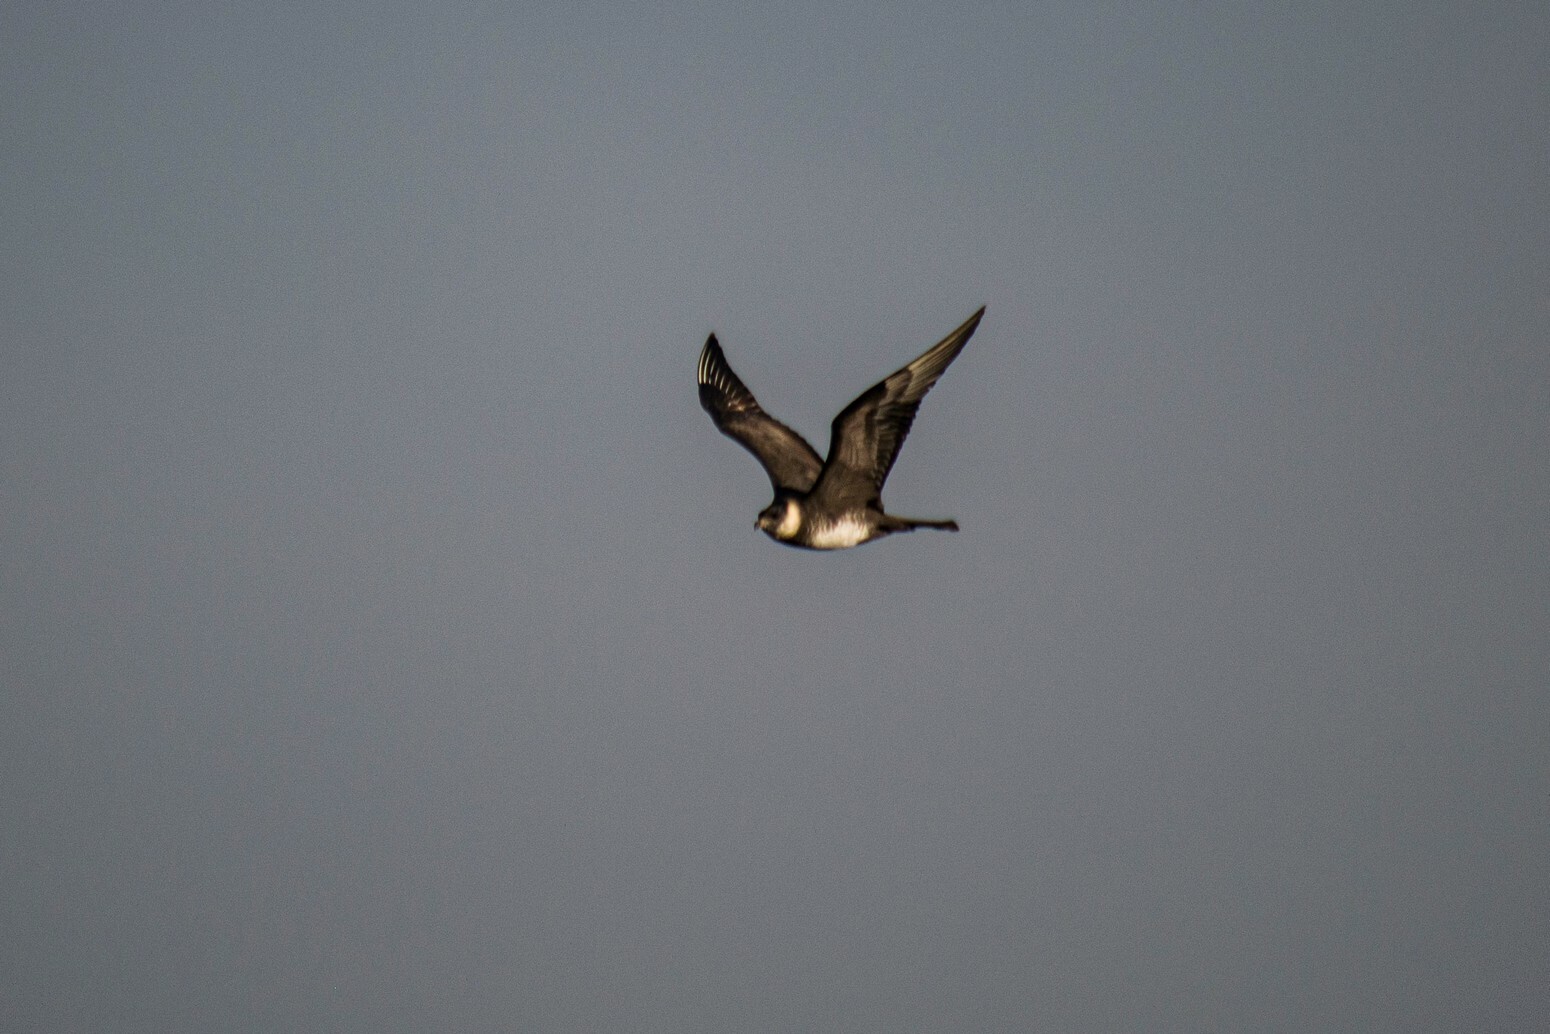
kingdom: Animalia
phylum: Chordata
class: Aves
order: Charadriiformes
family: Stercorariidae
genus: Stercorarius
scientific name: Stercorarius pomarinus
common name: Pomarine jaeger
